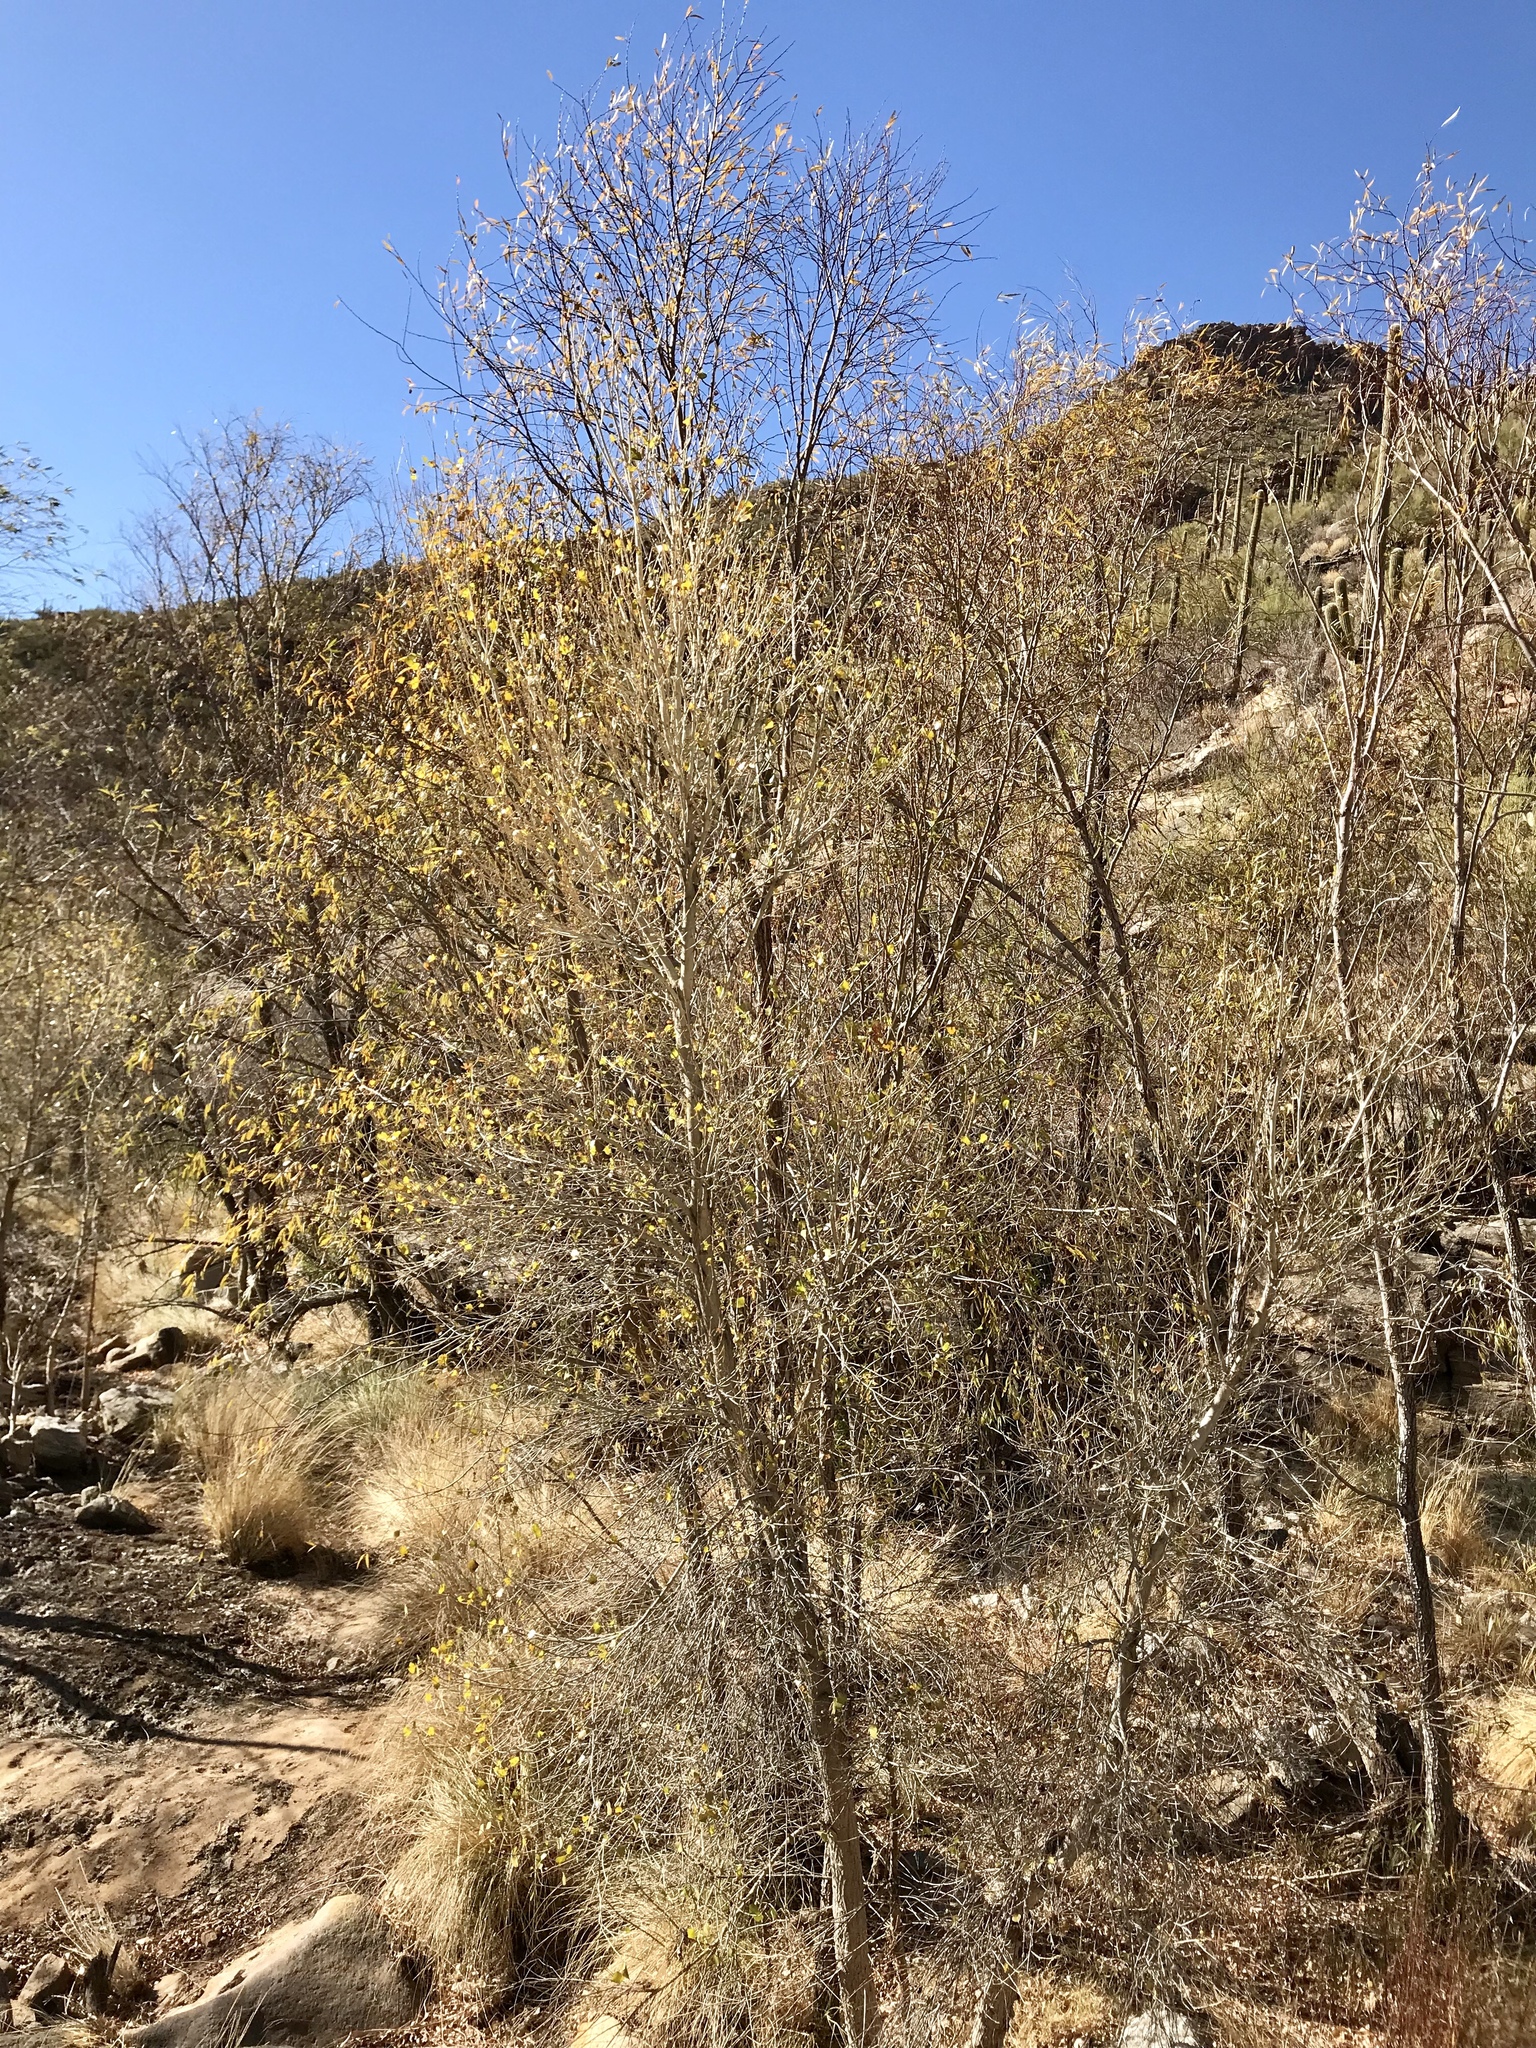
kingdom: Plantae
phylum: Tracheophyta
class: Magnoliopsida
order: Malpighiales
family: Salicaceae
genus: Populus
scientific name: Populus fremontii
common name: Fremont's cottonwood
